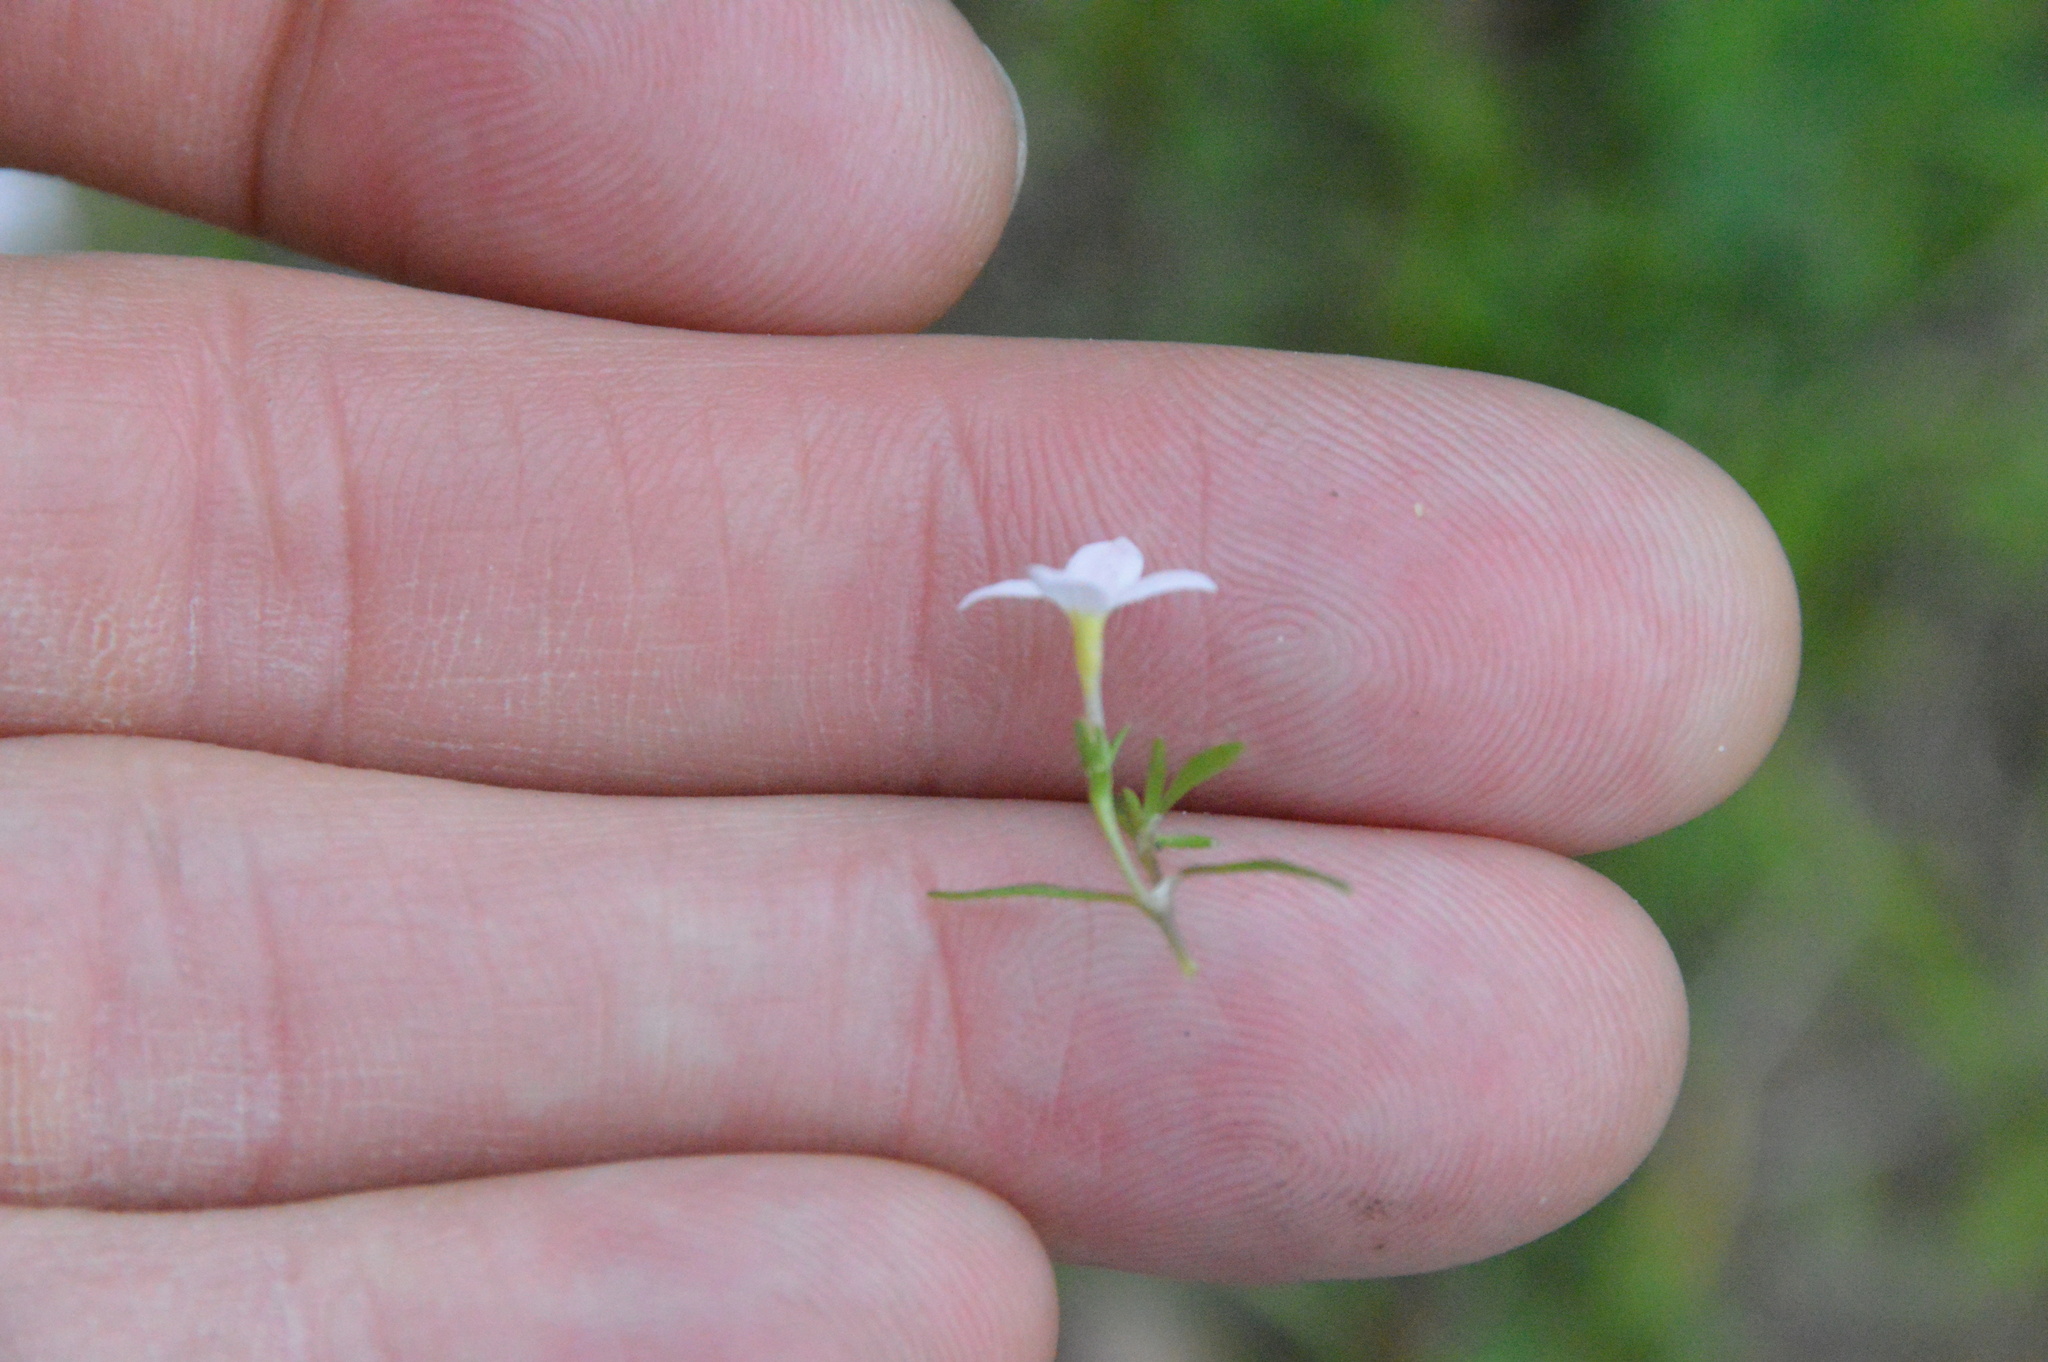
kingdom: Plantae
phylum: Tracheophyta
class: Magnoliopsida
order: Gentianales
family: Rubiaceae
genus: Houstonia
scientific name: Houstonia rosea
